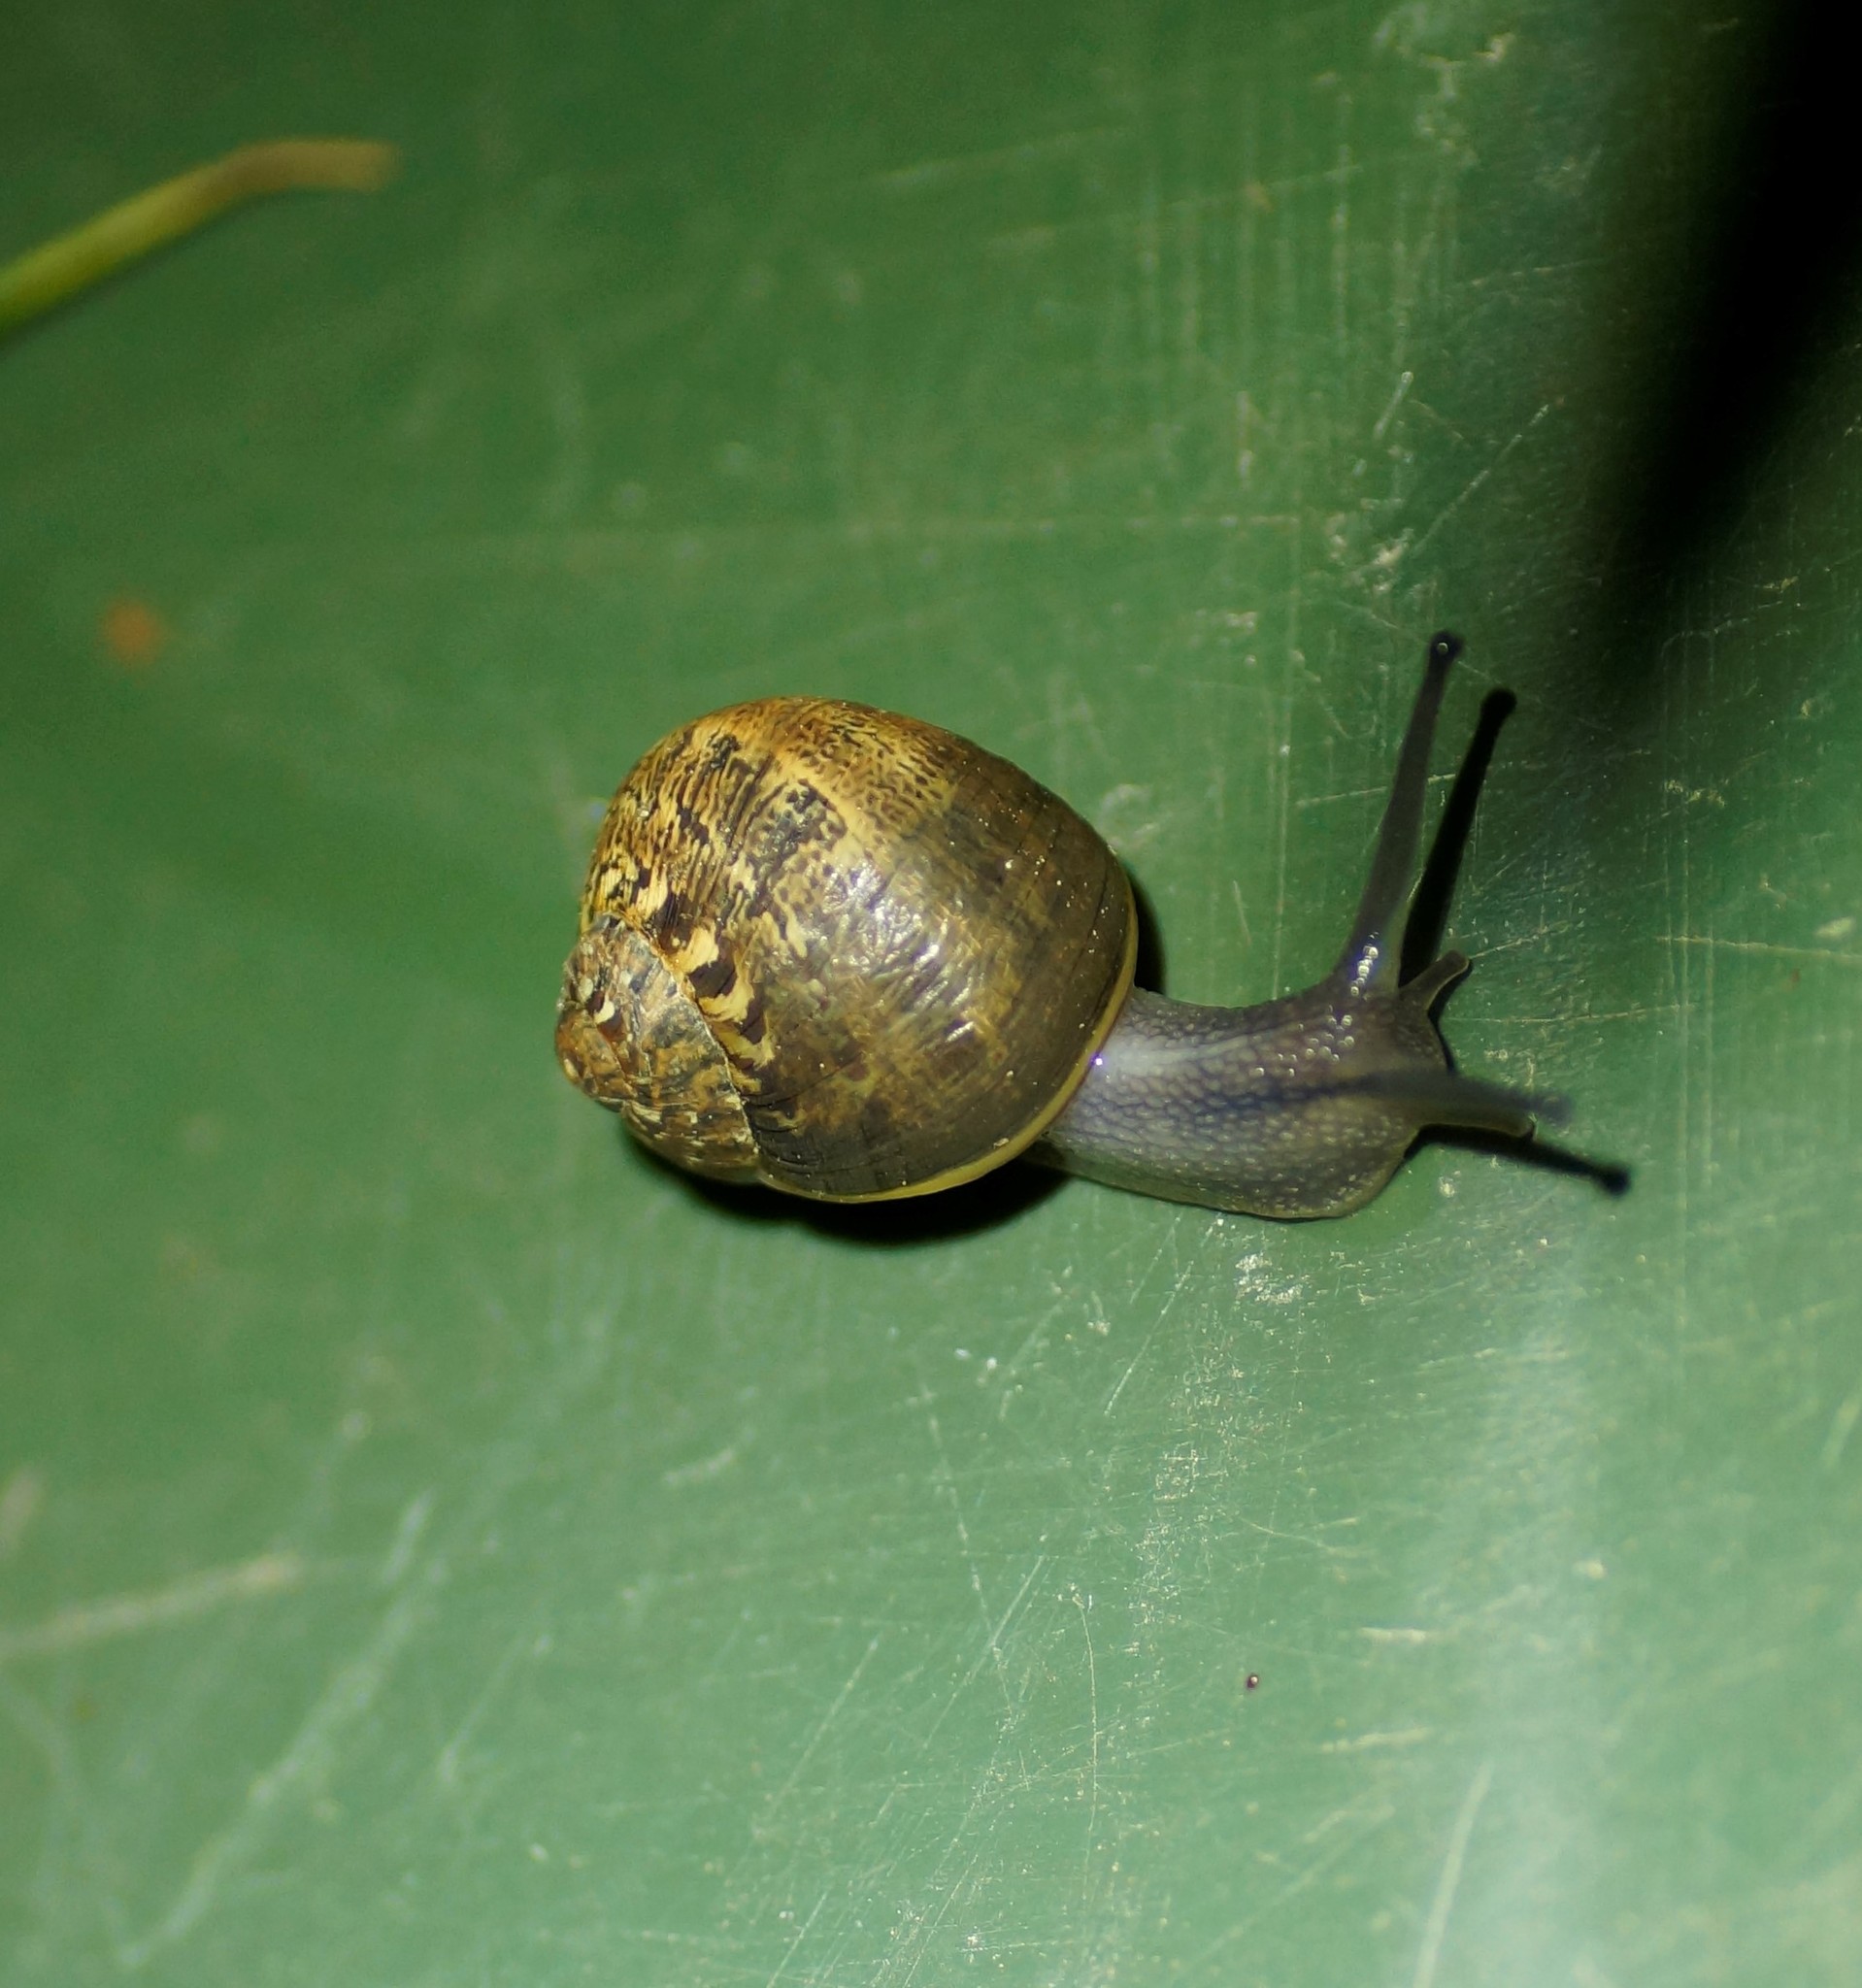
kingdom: Animalia
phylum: Mollusca
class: Gastropoda
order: Stylommatophora
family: Helicidae
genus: Cornu
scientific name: Cornu aspersum
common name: Brown garden snail
